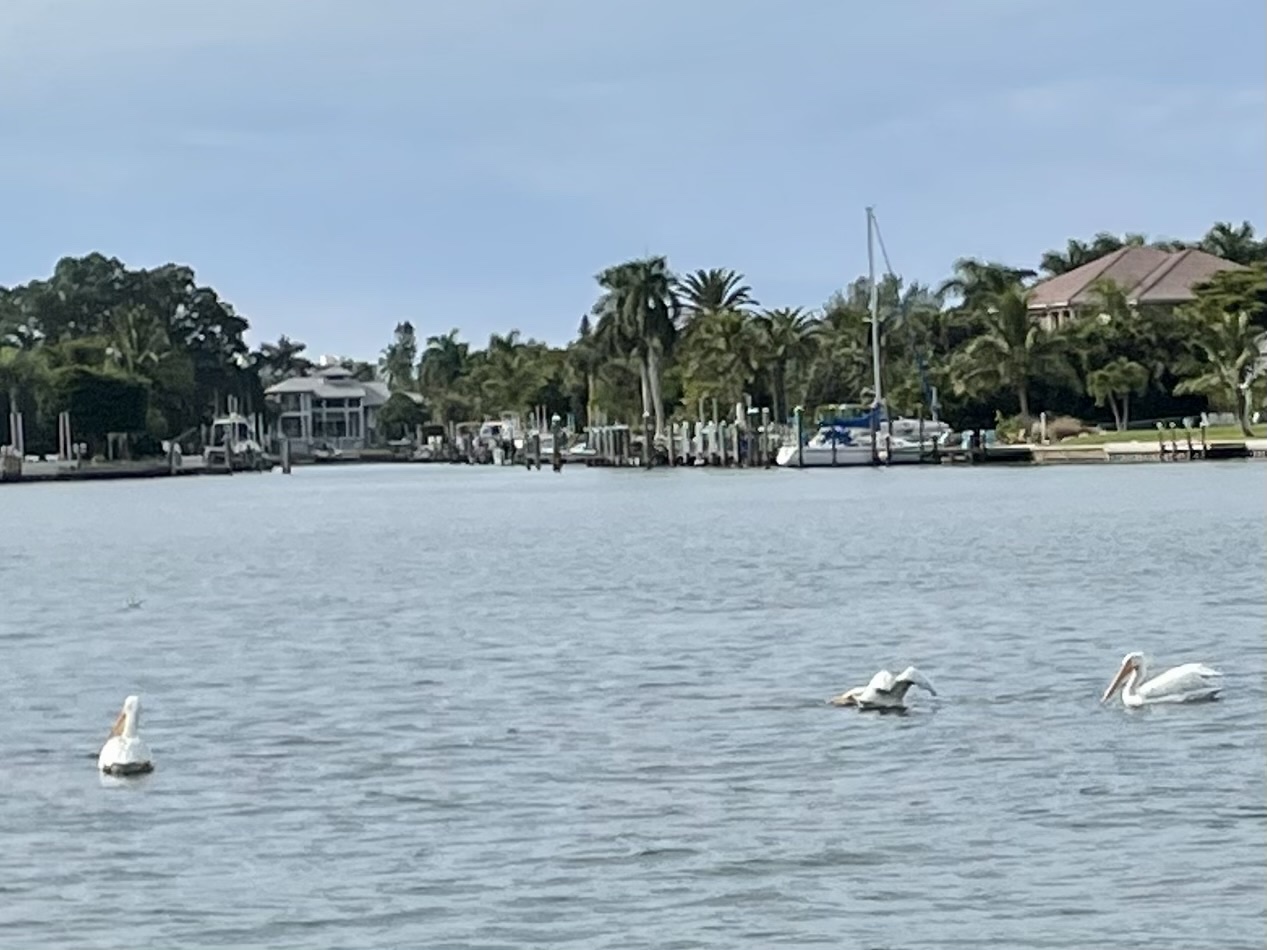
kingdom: Animalia
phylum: Chordata
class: Aves
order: Pelecaniformes
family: Pelecanidae
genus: Pelecanus
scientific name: Pelecanus erythrorhynchos
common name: American white pelican
